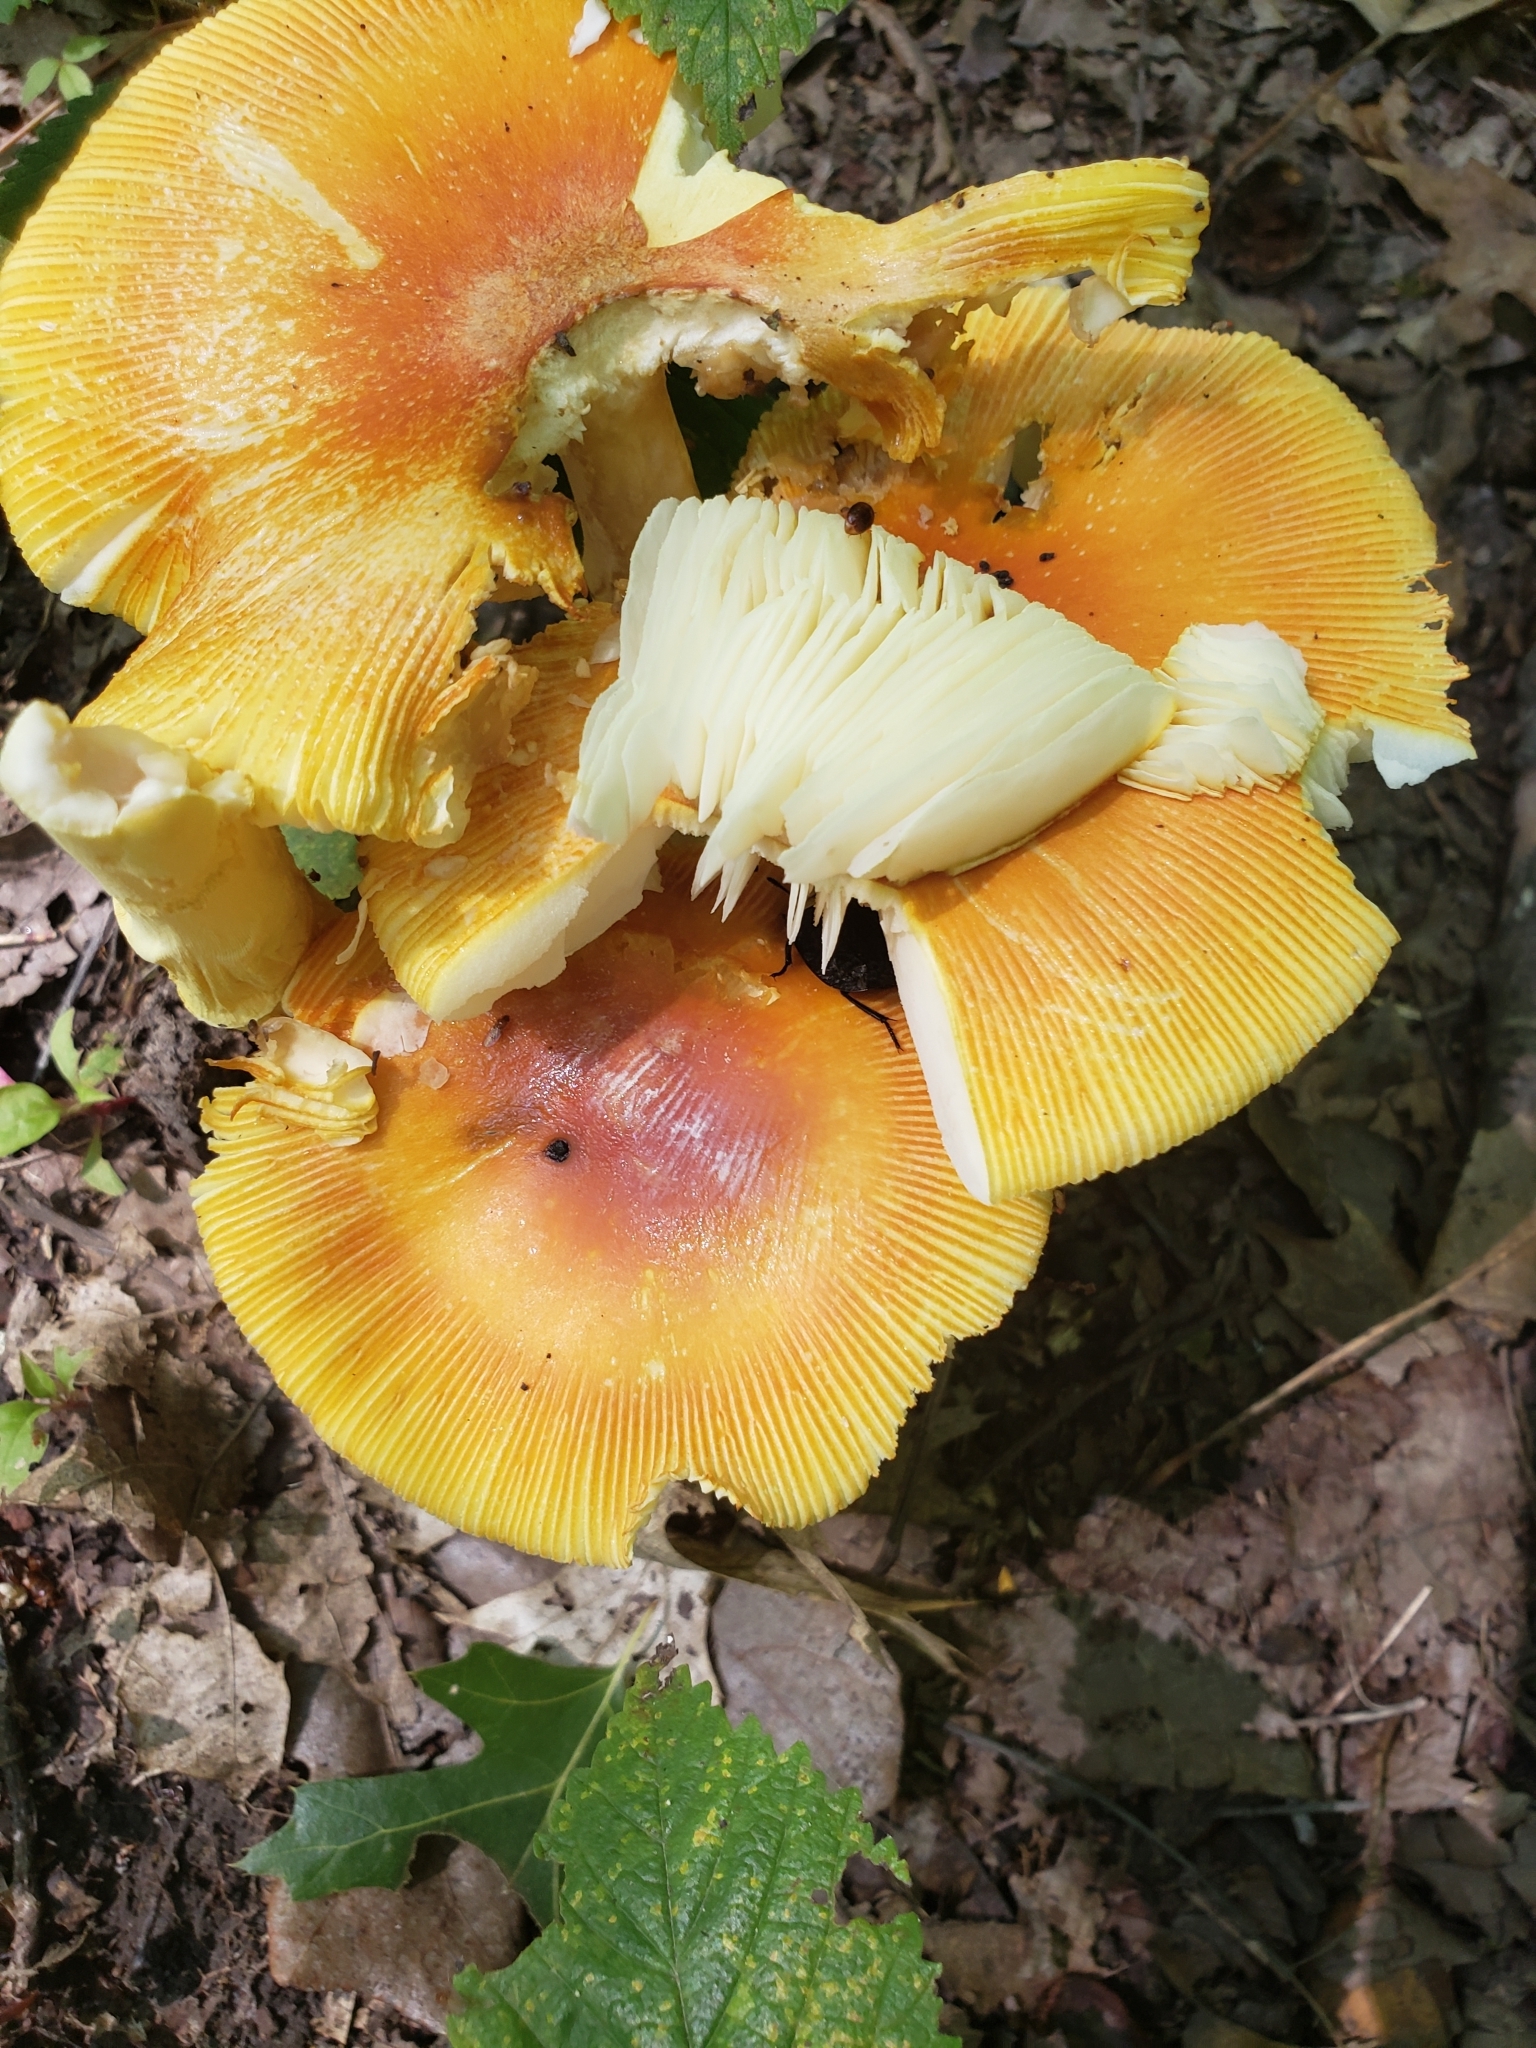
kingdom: Fungi
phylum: Basidiomycota
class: Agaricomycetes
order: Agaricales
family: Amanitaceae
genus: Amanita
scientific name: Amanita jacksonii
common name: Jackson's slender caesar
